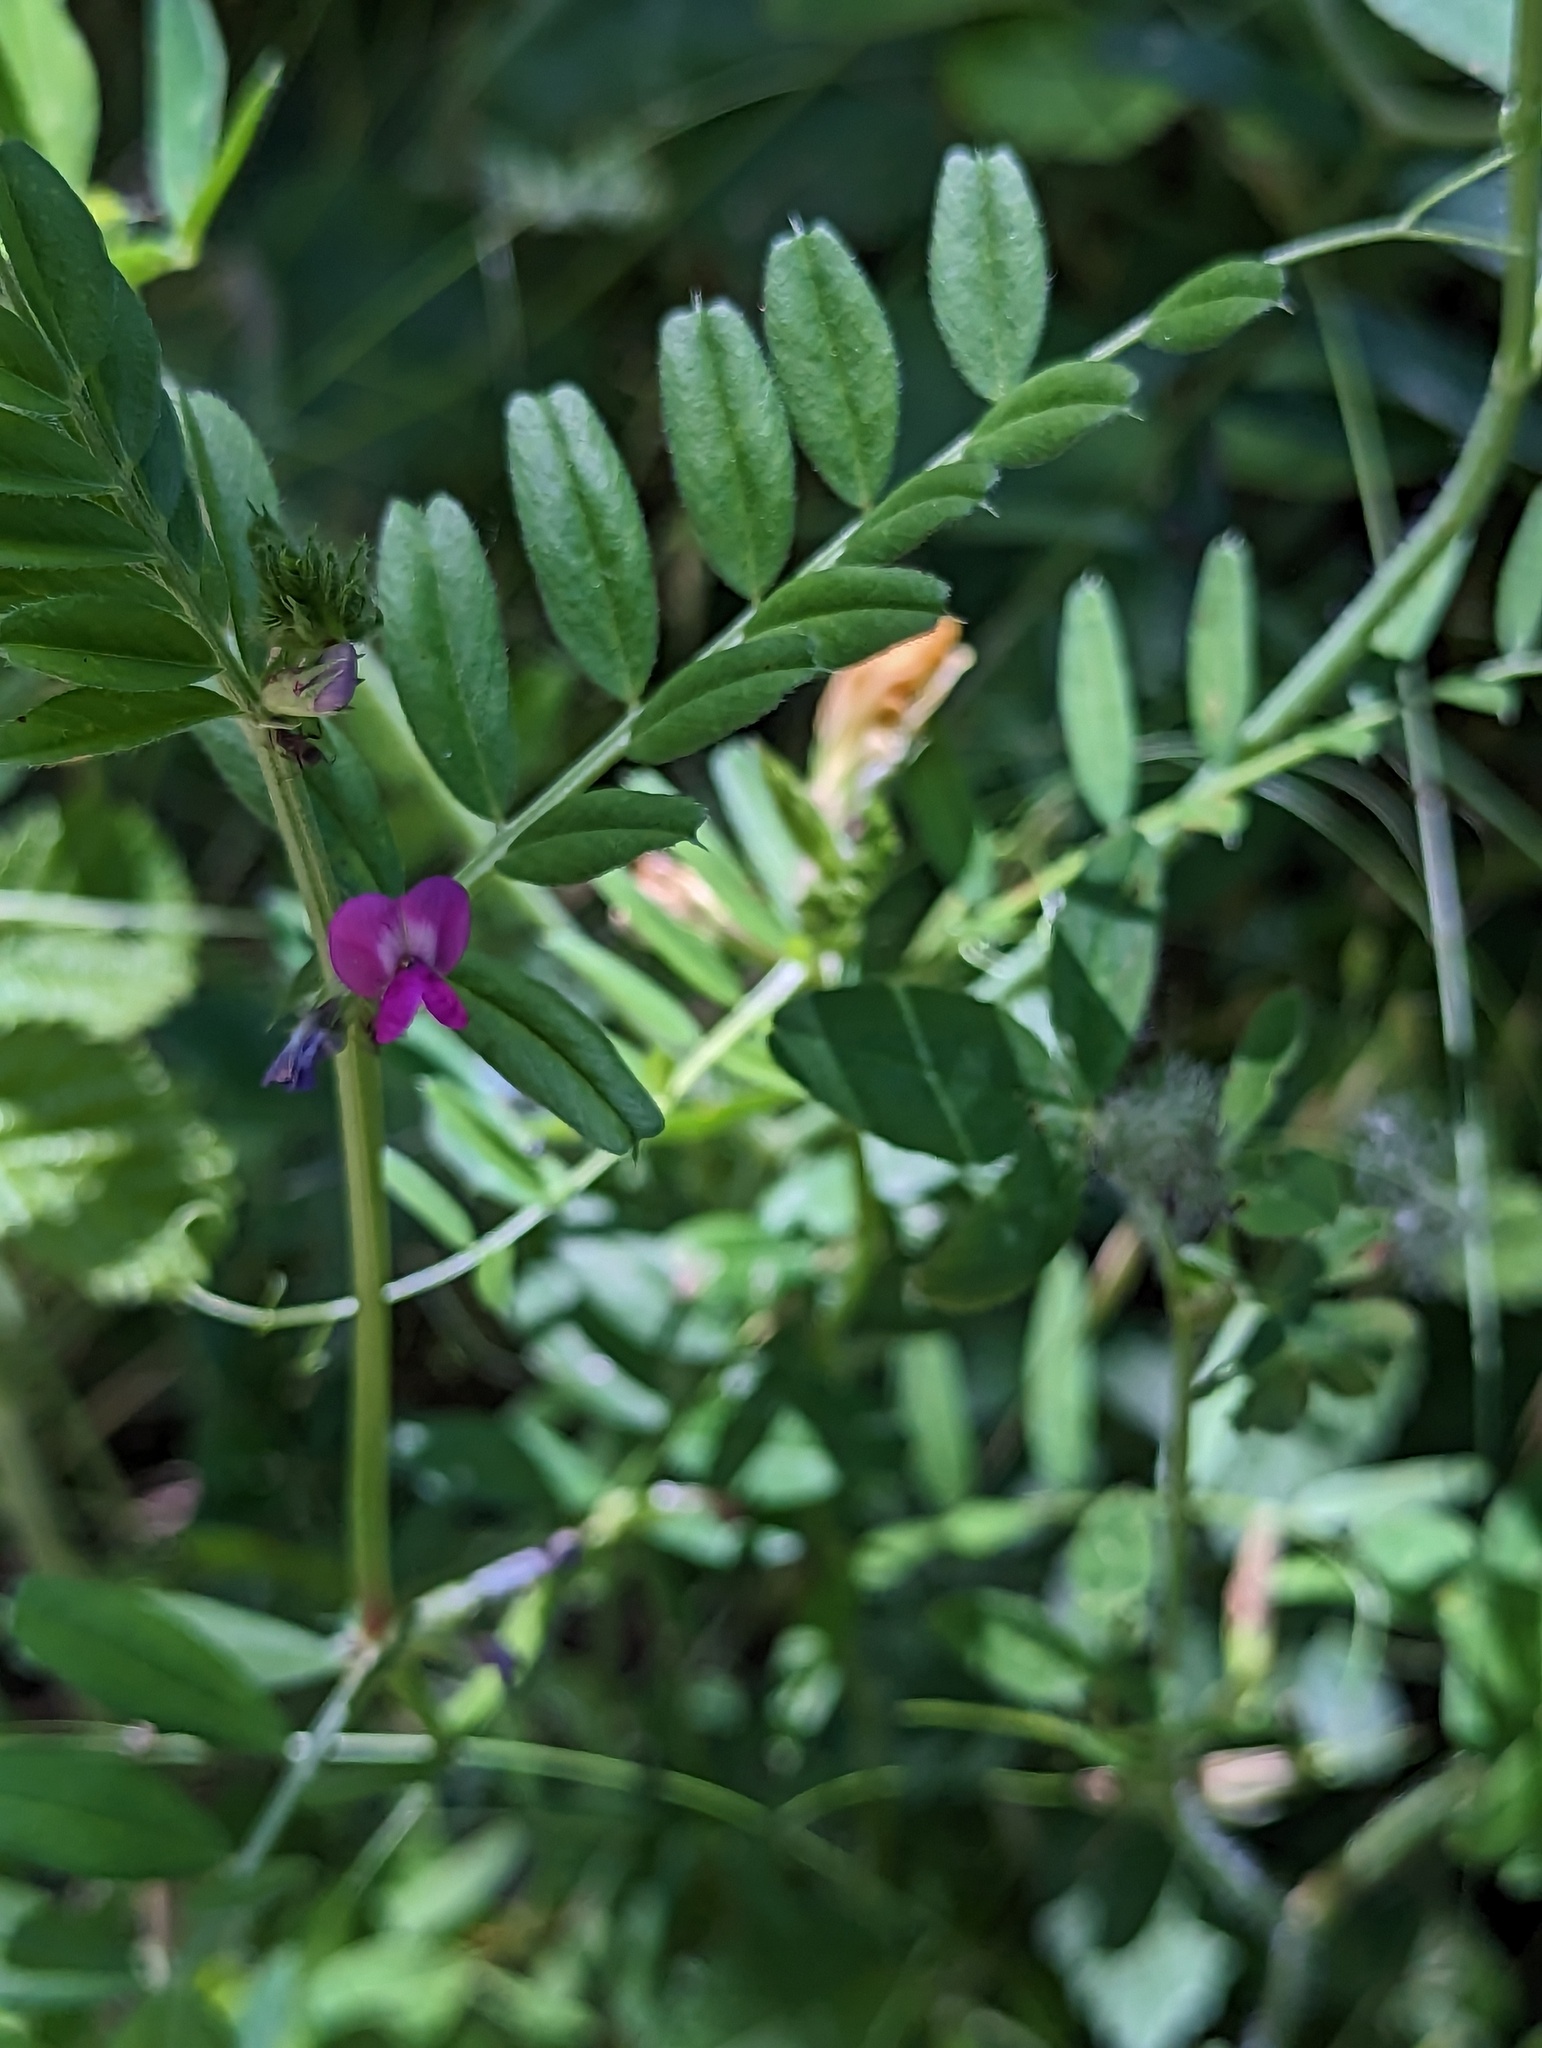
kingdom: Plantae
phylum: Tracheophyta
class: Magnoliopsida
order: Fabales
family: Fabaceae
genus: Vicia
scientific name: Vicia sativa
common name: Garden vetch
